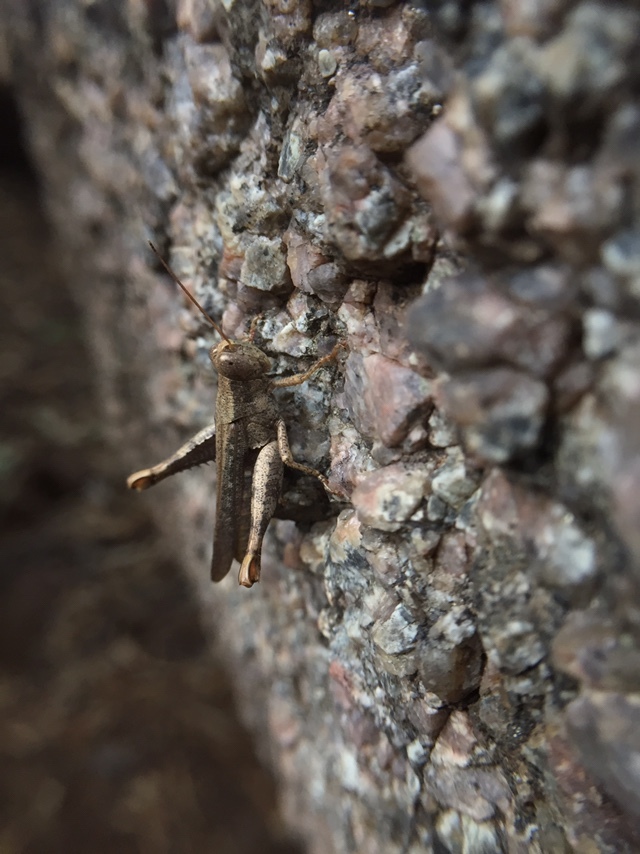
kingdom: Animalia
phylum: Arthropoda
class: Insecta
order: Orthoptera
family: Acrididae
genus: Pirithoicus
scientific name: Pirithoicus ophthalmicus
